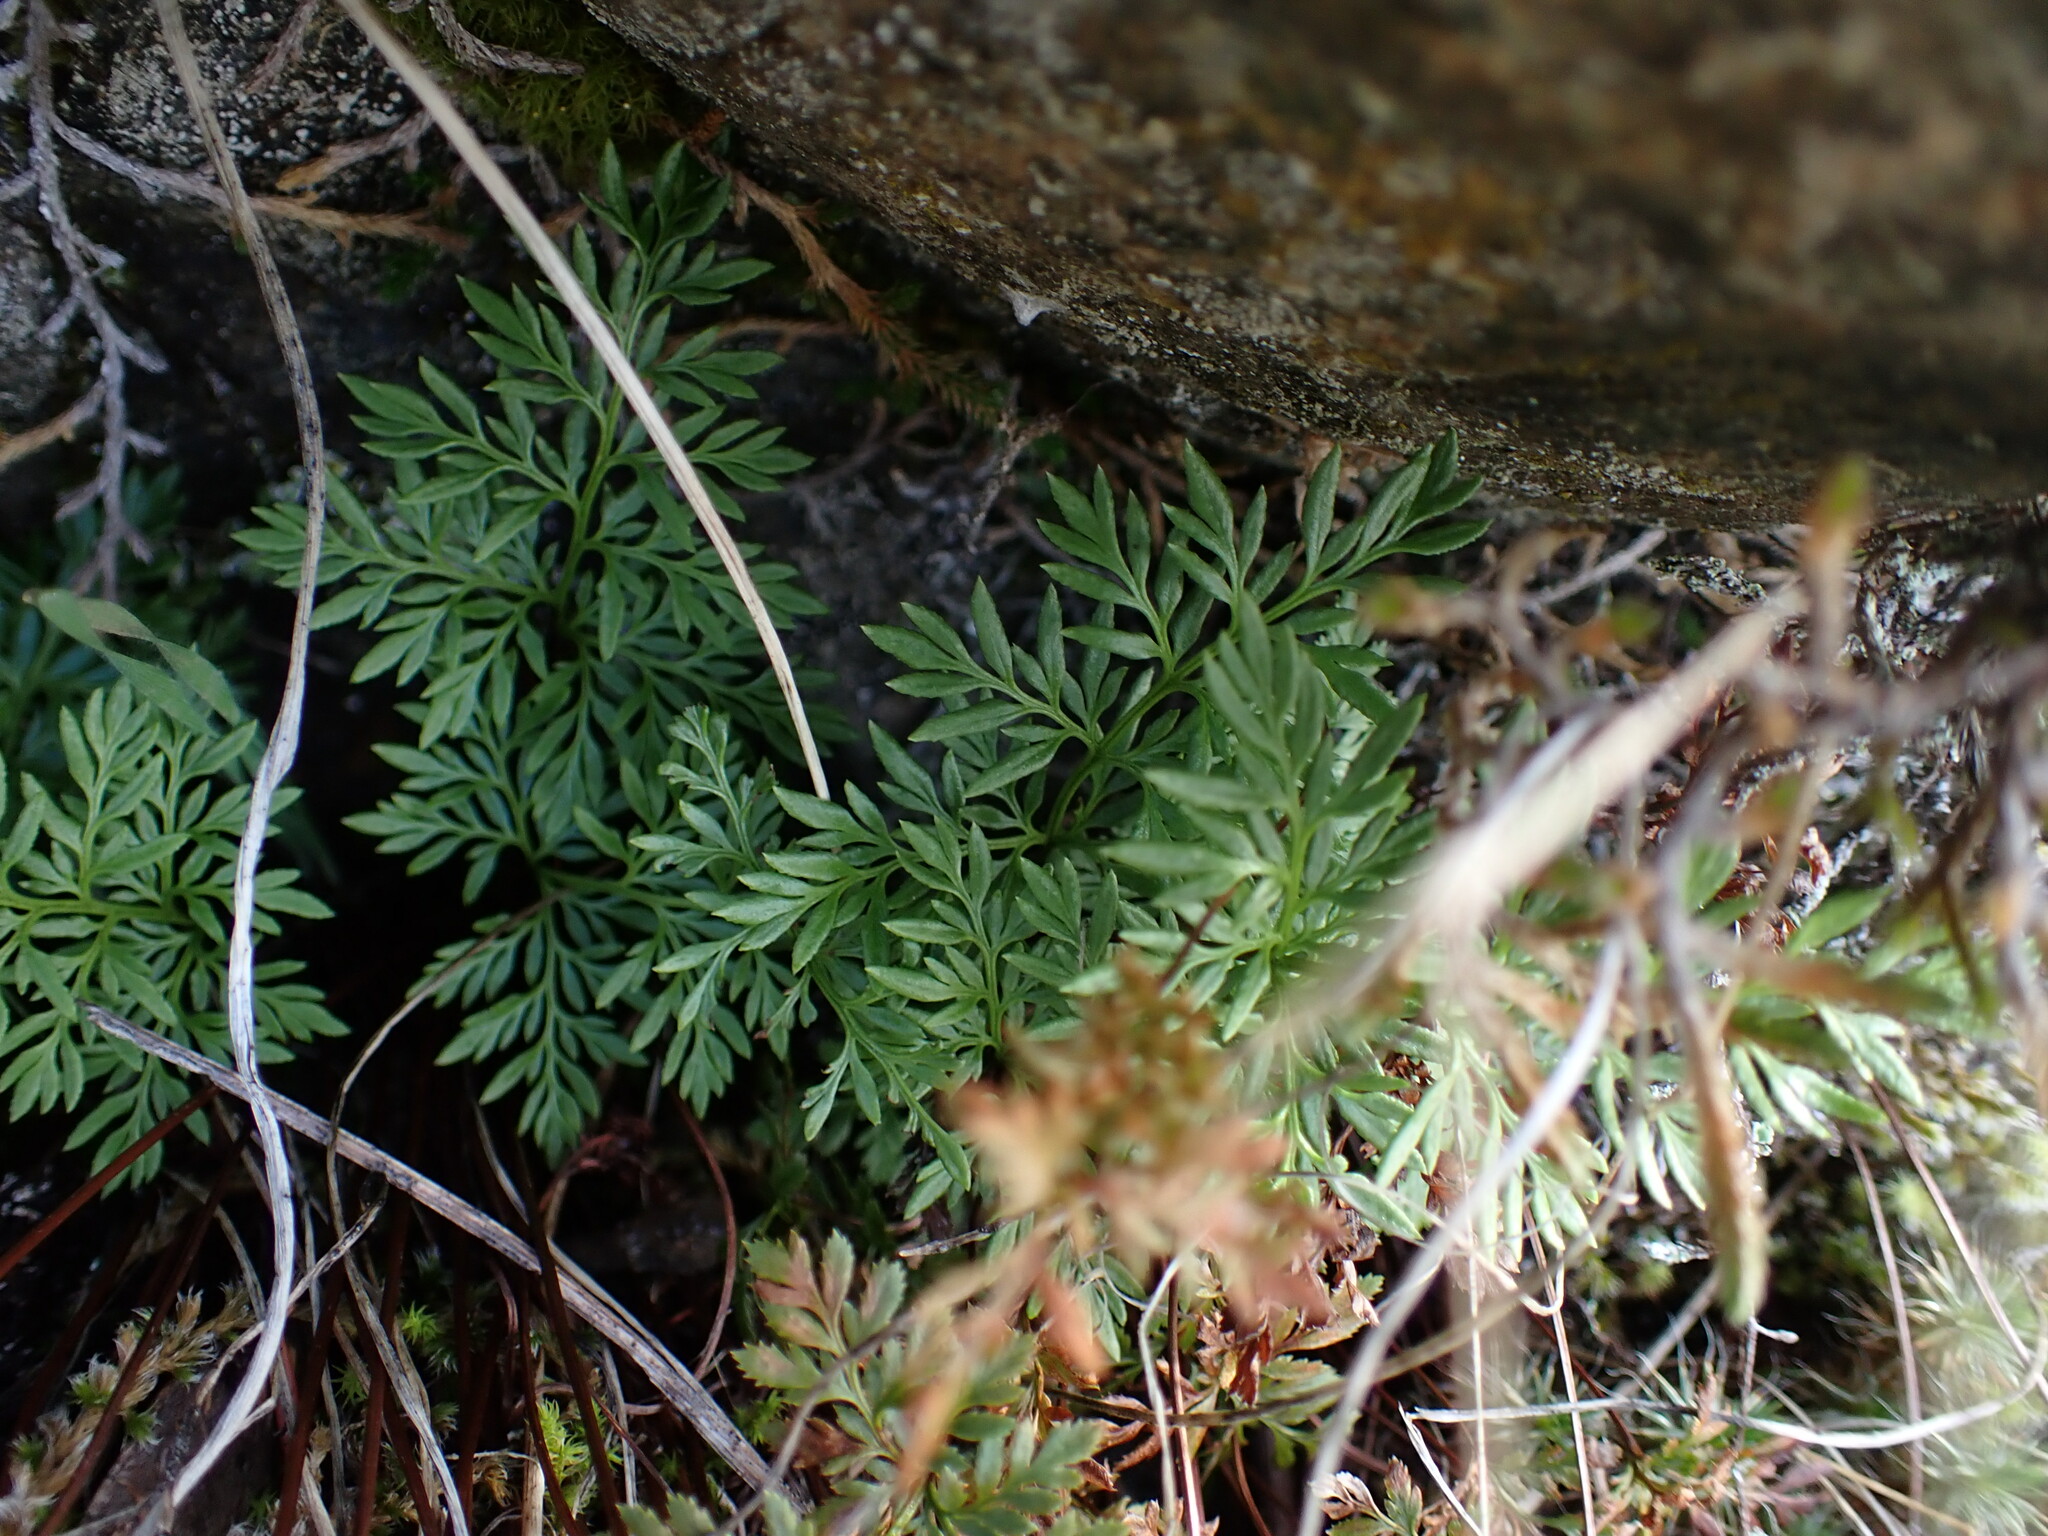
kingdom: Plantae
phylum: Tracheophyta
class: Polypodiopsida
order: Polypodiales
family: Pteridaceae
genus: Aspidotis
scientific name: Aspidotis densa
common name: Indian's dream
